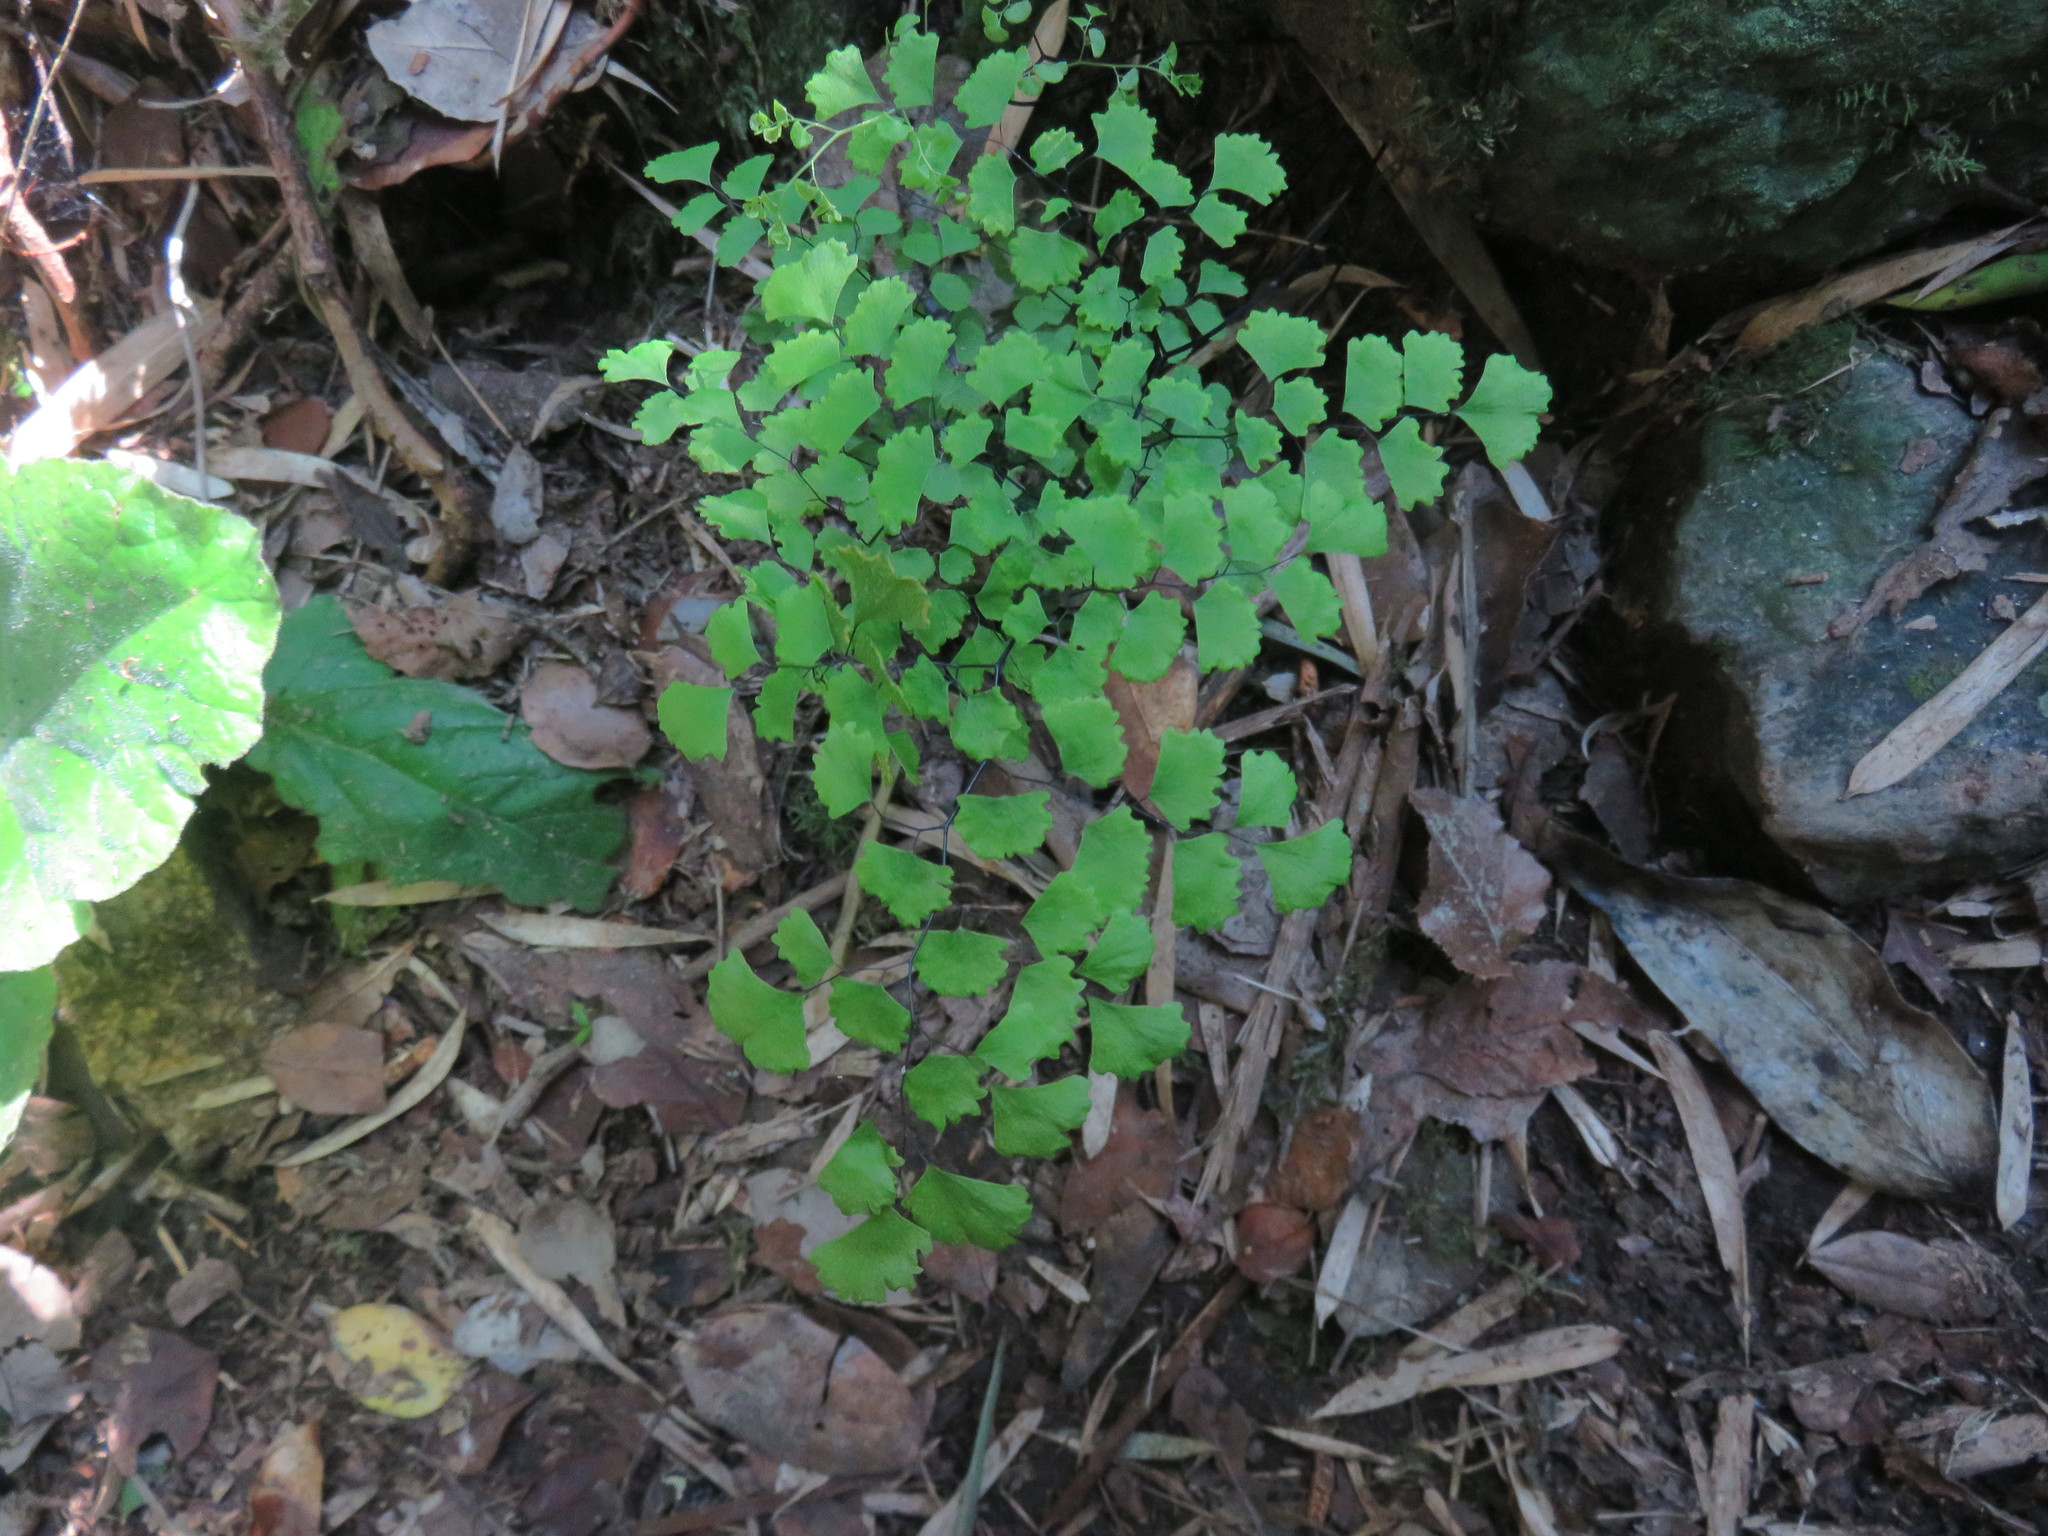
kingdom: Plantae
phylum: Tracheophyta
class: Polypodiopsida
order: Polypodiales
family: Pteridaceae
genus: Adiantum
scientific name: Adiantum chilense
